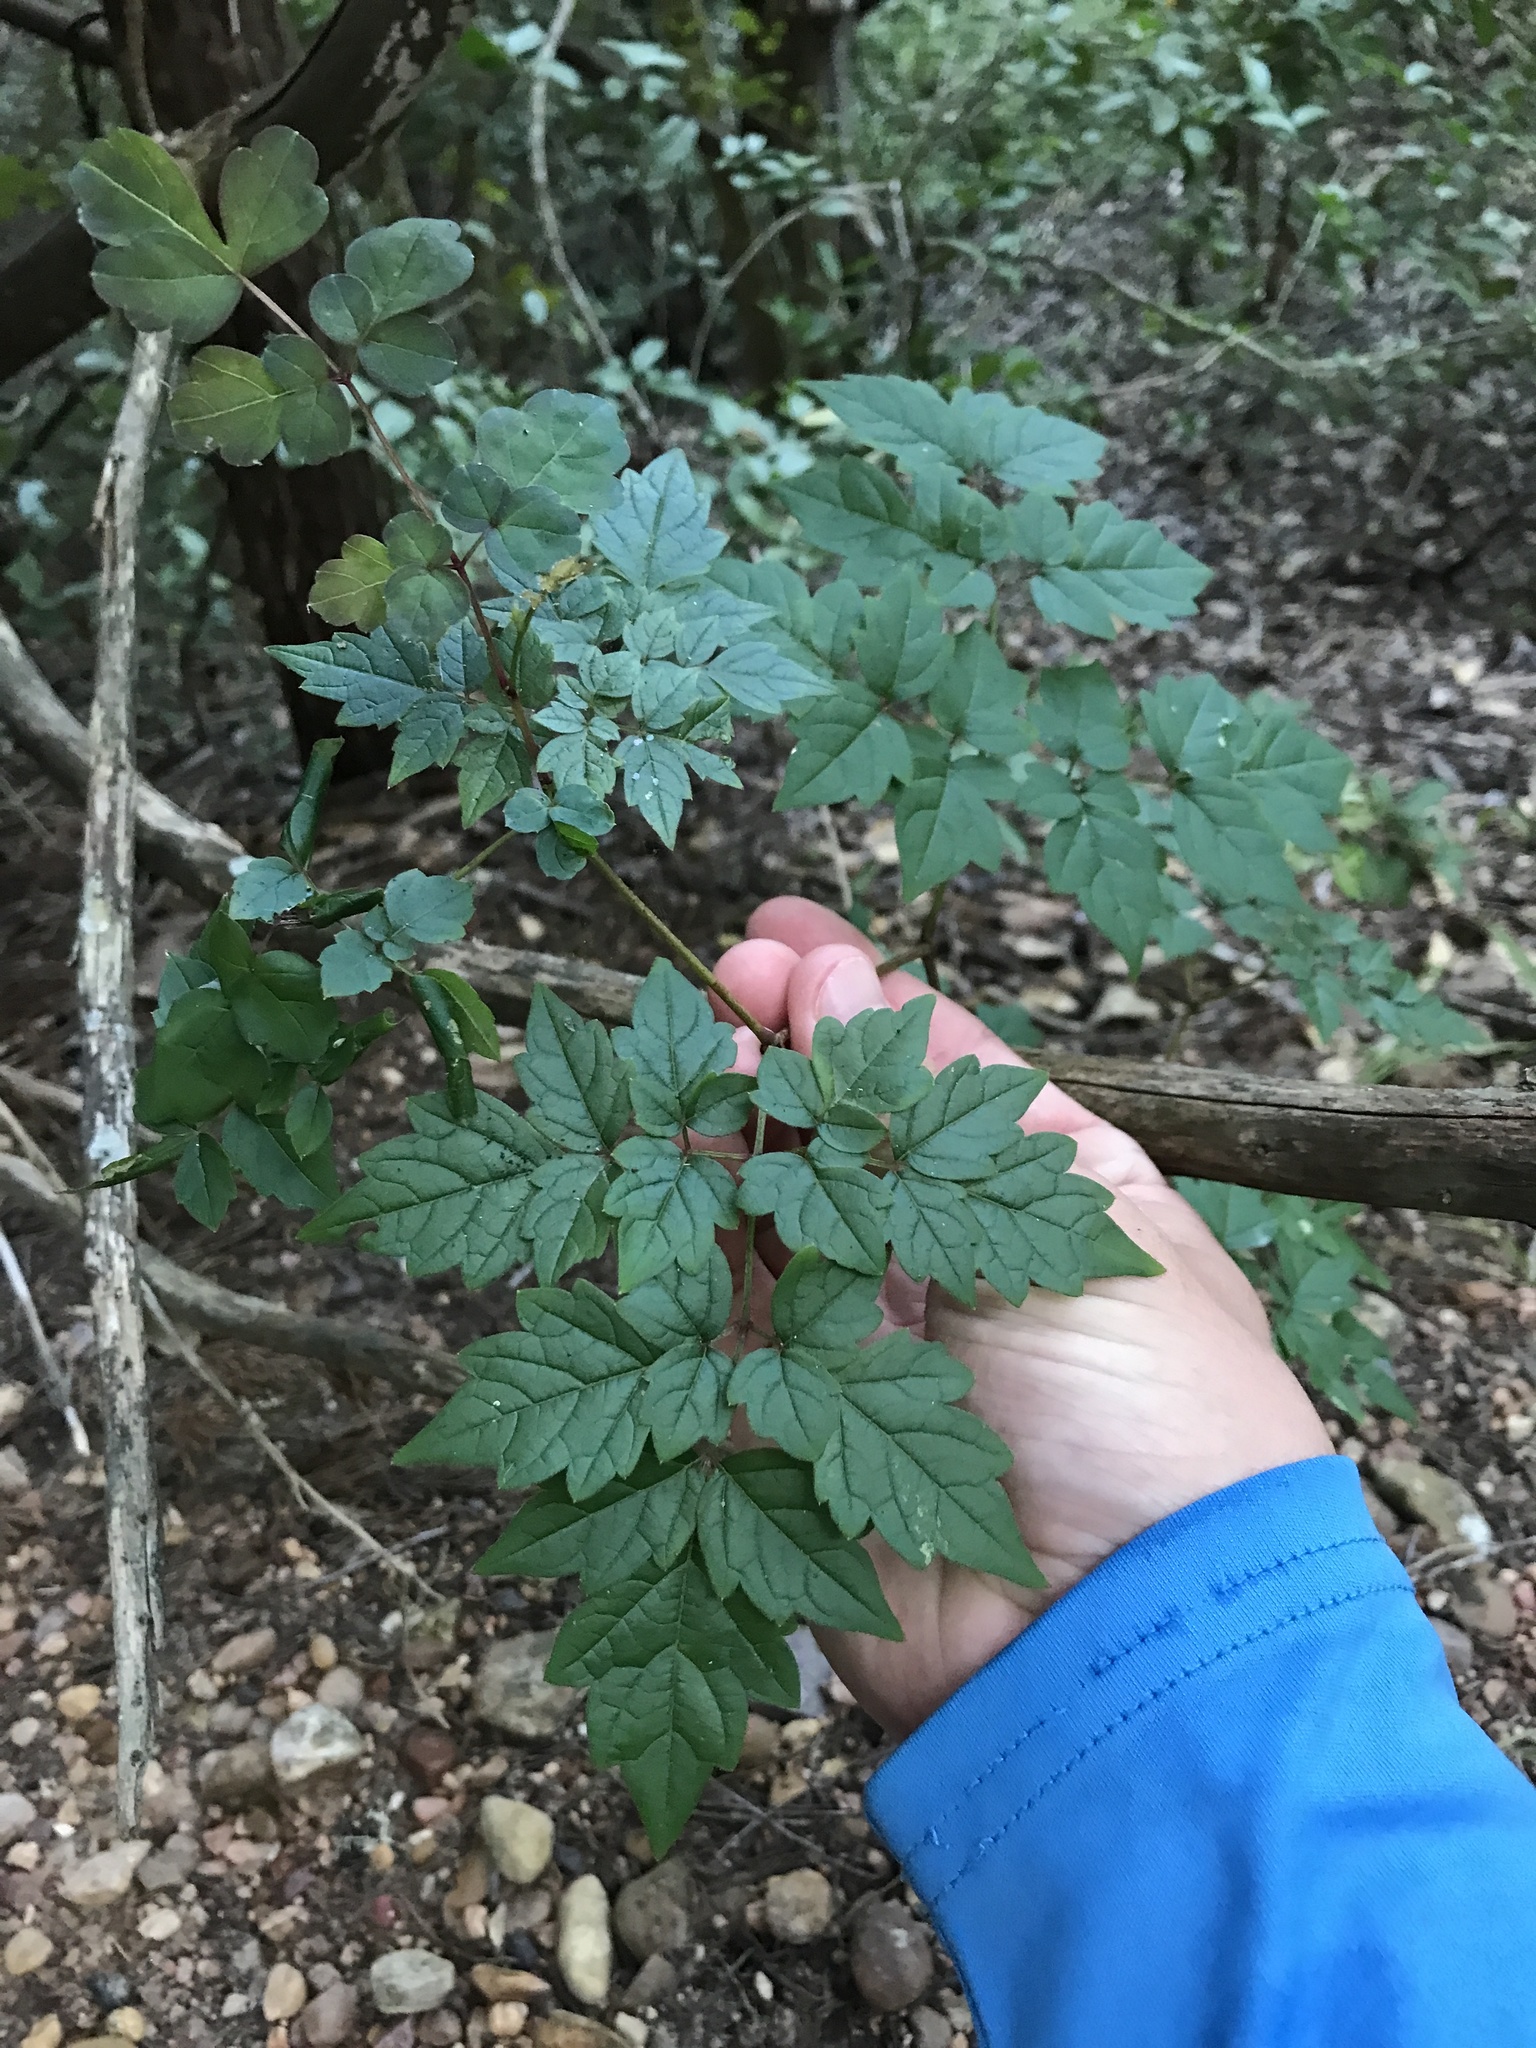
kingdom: Plantae
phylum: Tracheophyta
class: Magnoliopsida
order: Vitales
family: Vitaceae
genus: Nekemias
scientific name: Nekemias arborea
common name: Peppervine
